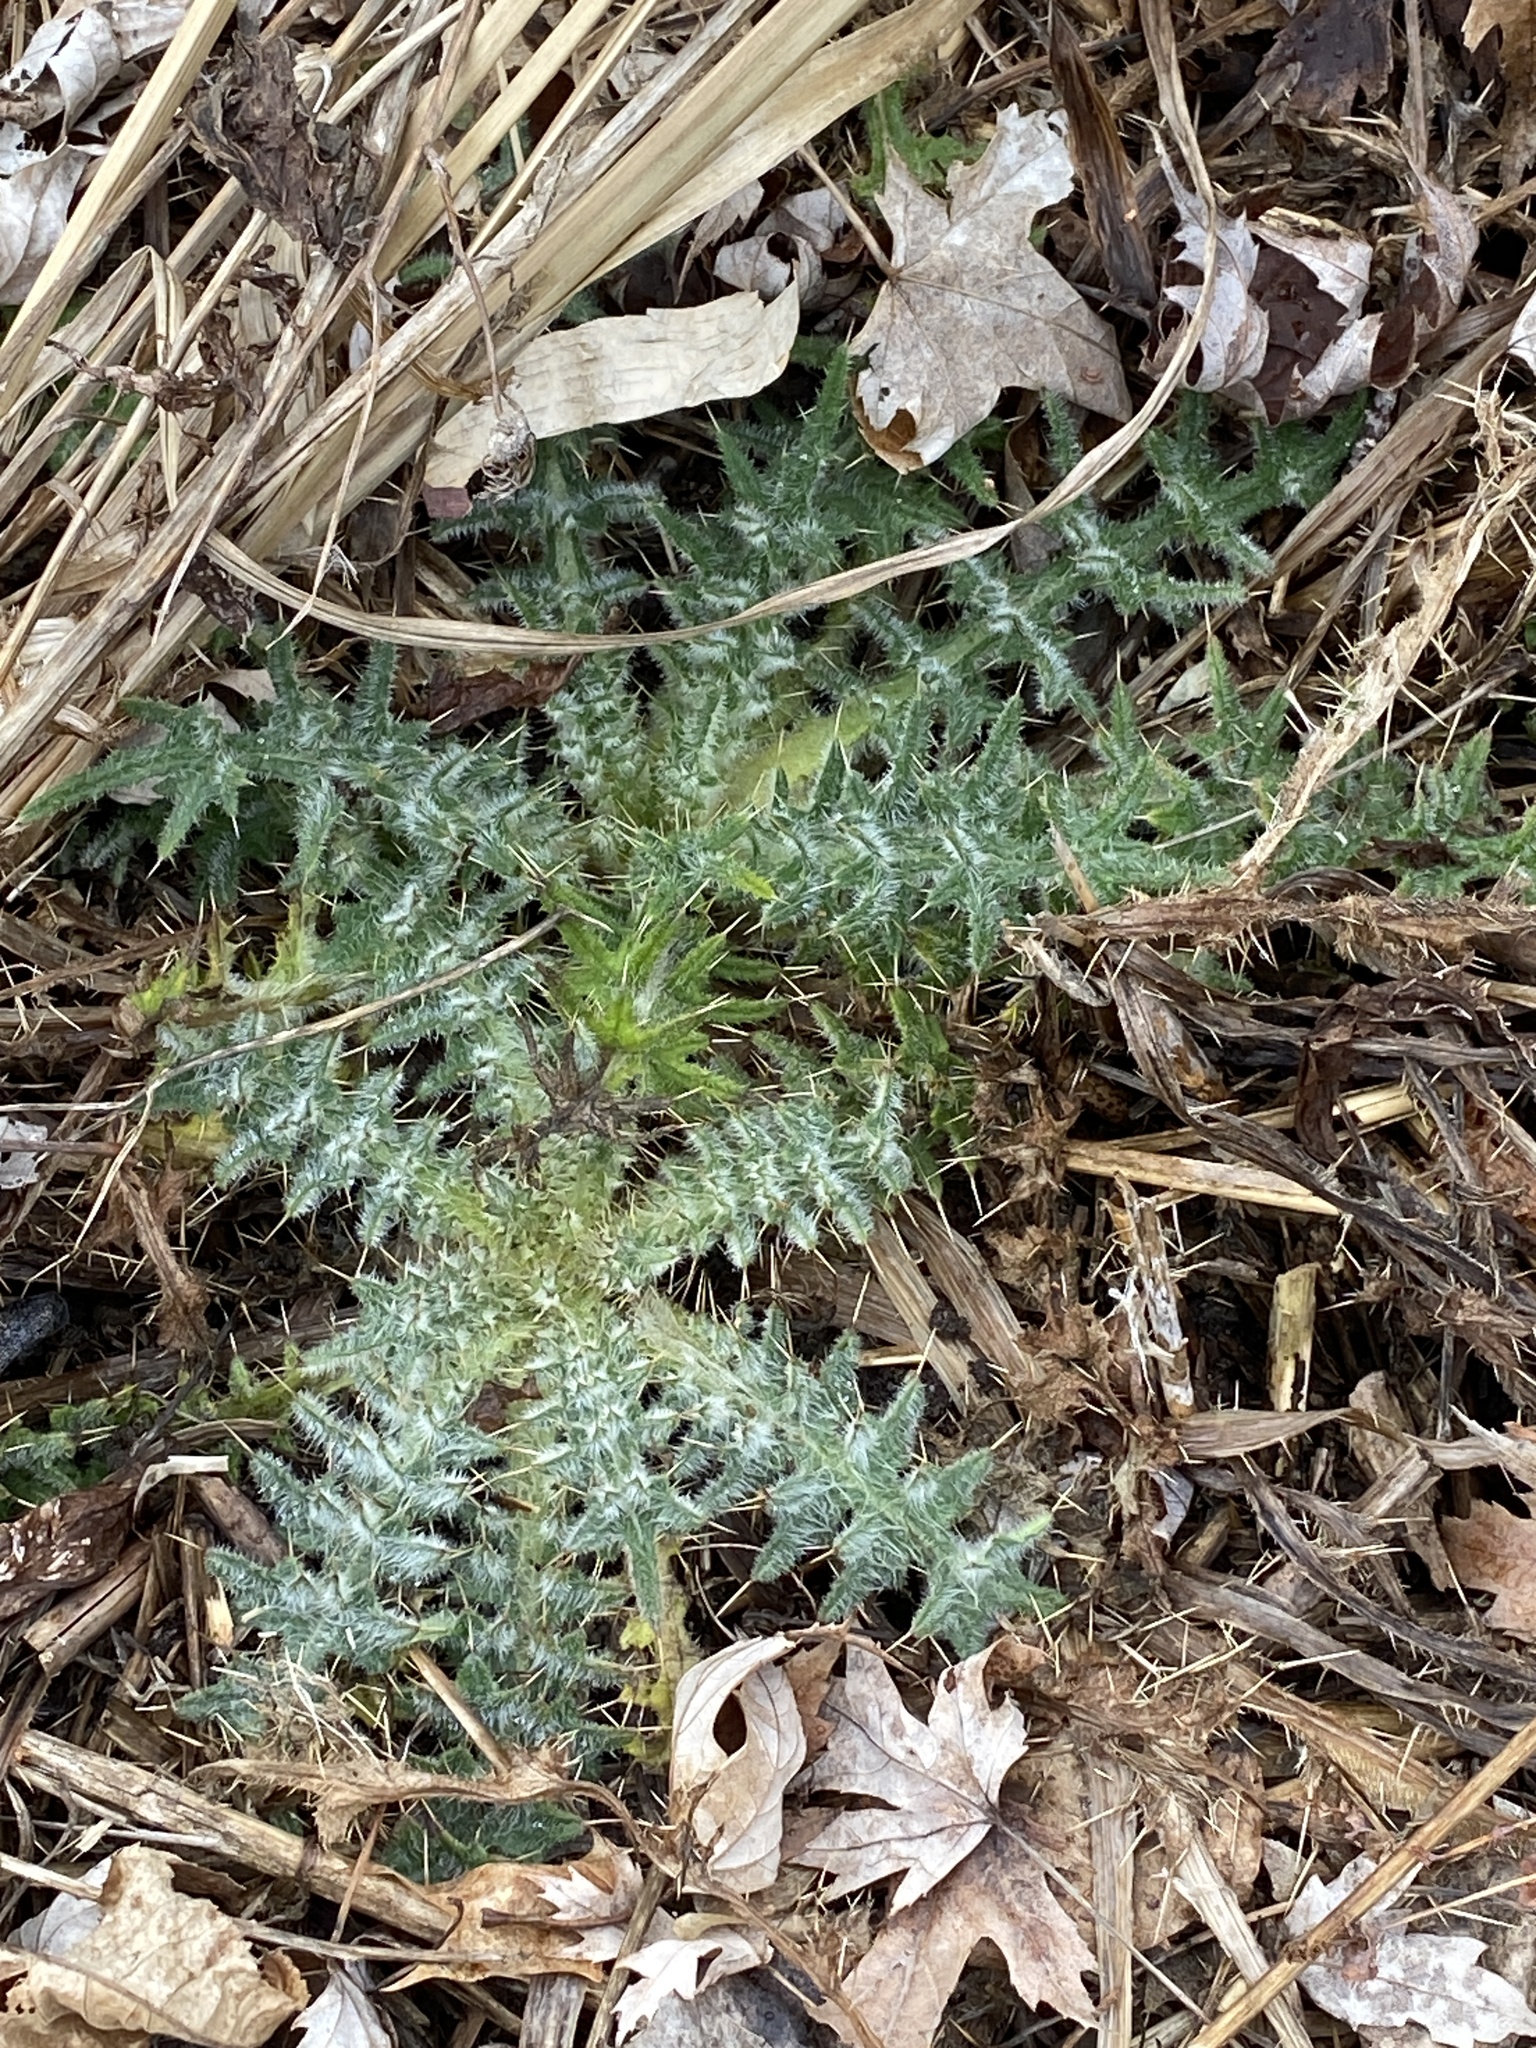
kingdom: Plantae
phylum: Tracheophyta
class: Magnoliopsida
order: Asterales
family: Asteraceae
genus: Cirsium
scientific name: Cirsium vulgare
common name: Bull thistle
